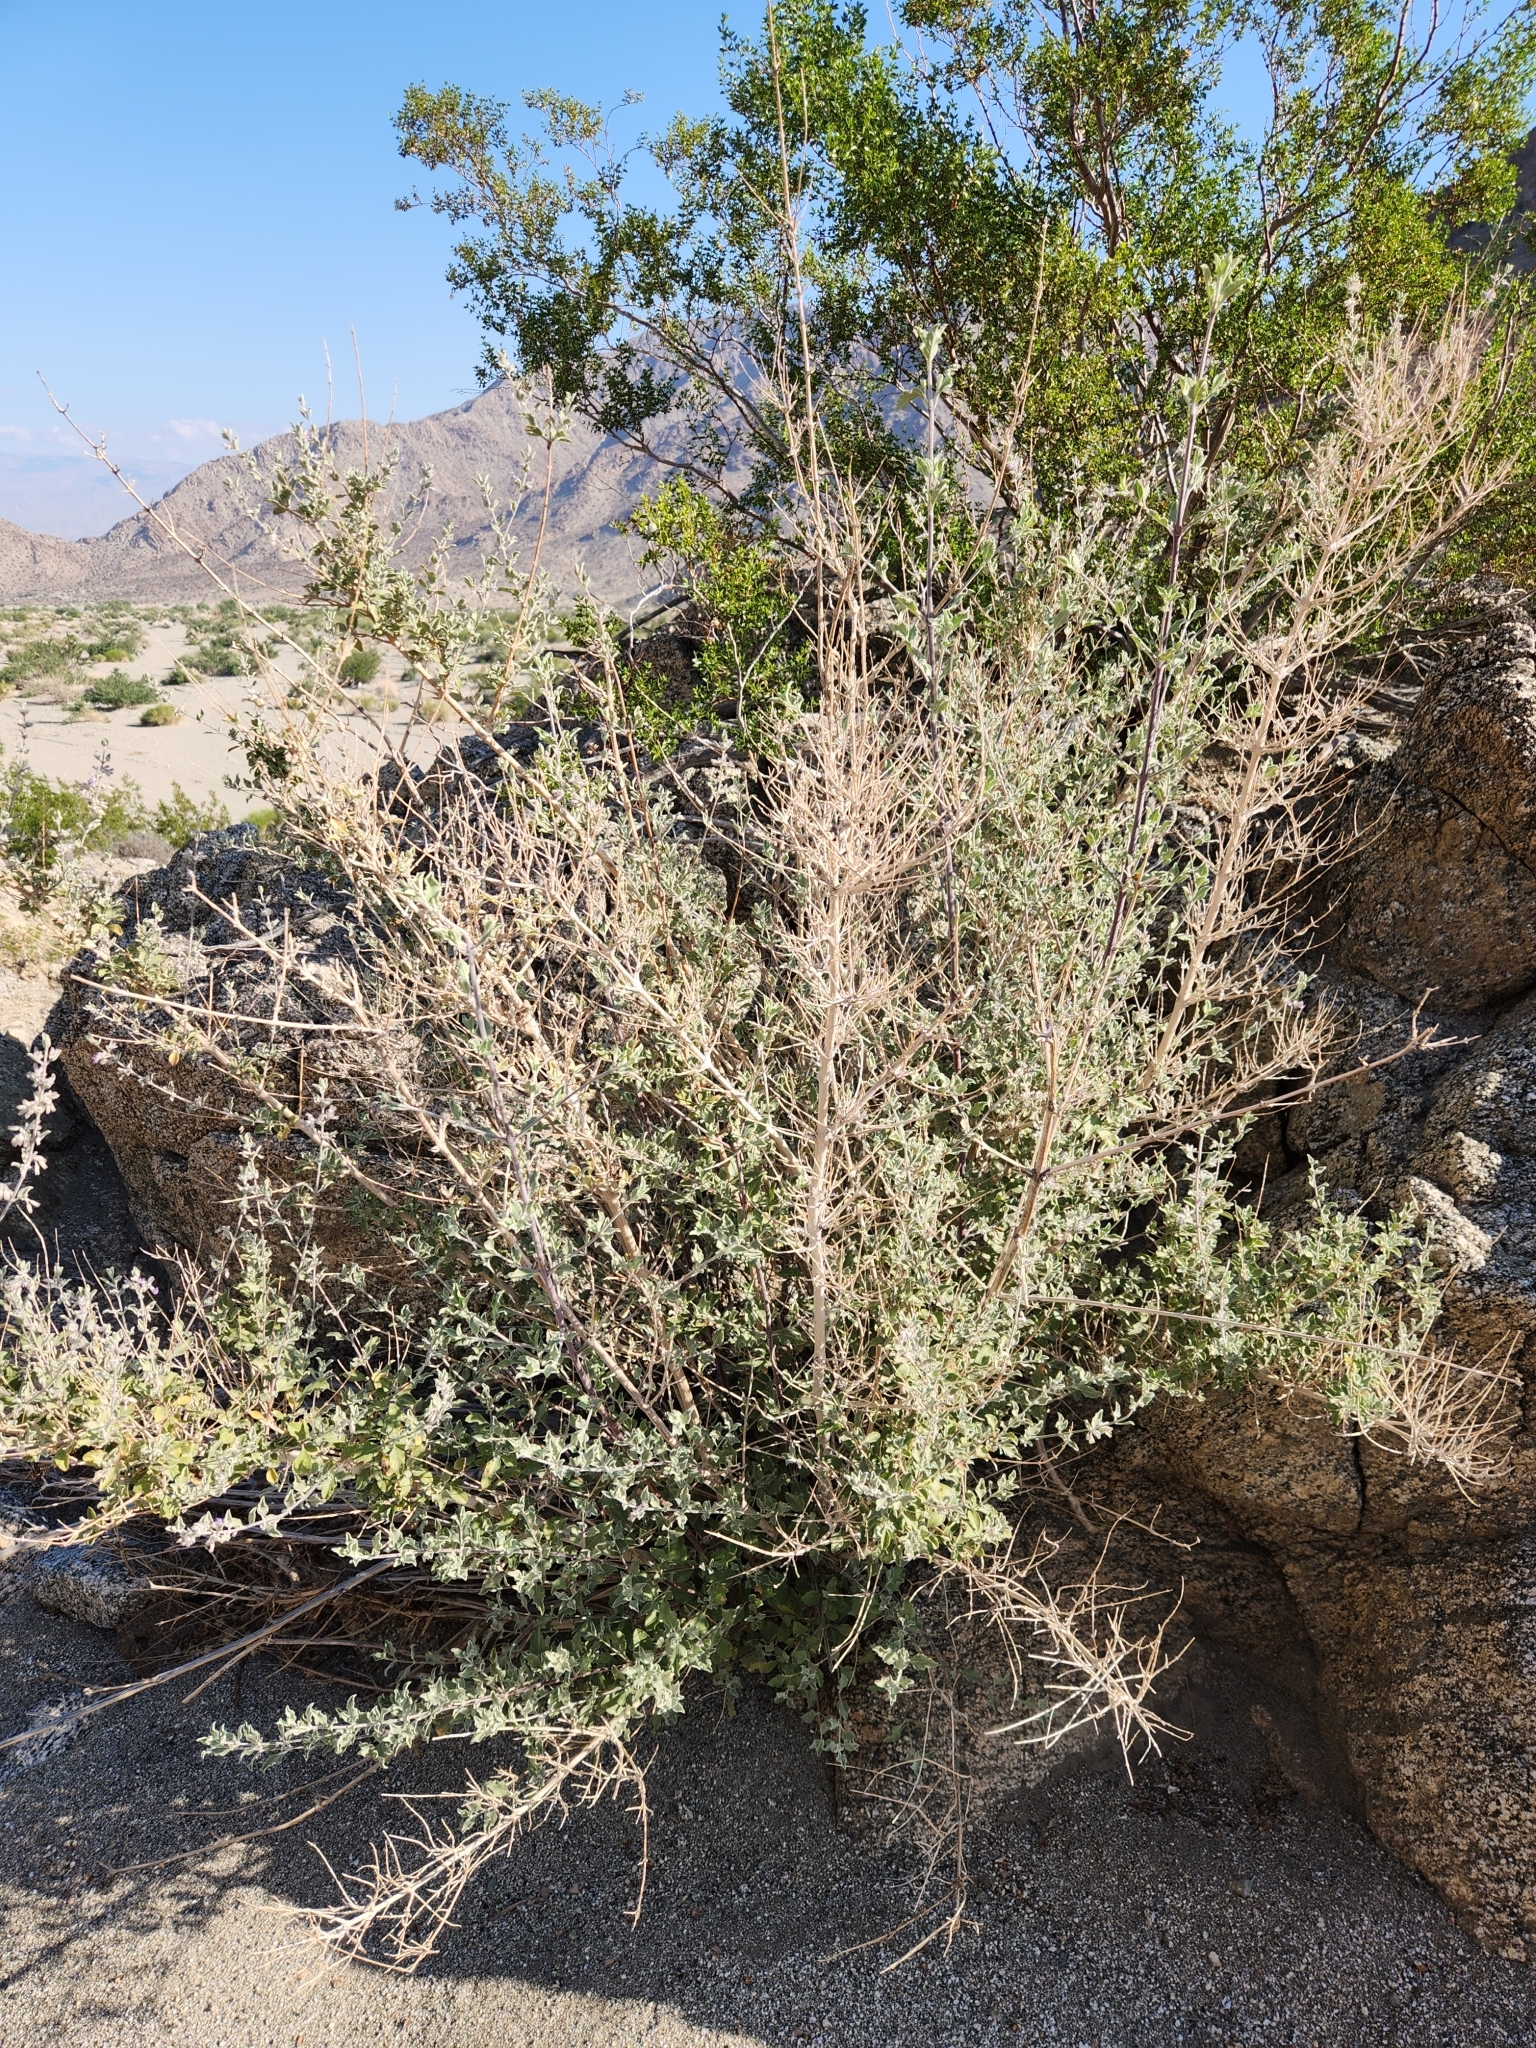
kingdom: Plantae
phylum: Tracheophyta
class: Magnoliopsida
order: Lamiales
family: Lamiaceae
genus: Condea
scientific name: Condea emoryi
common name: Chia
